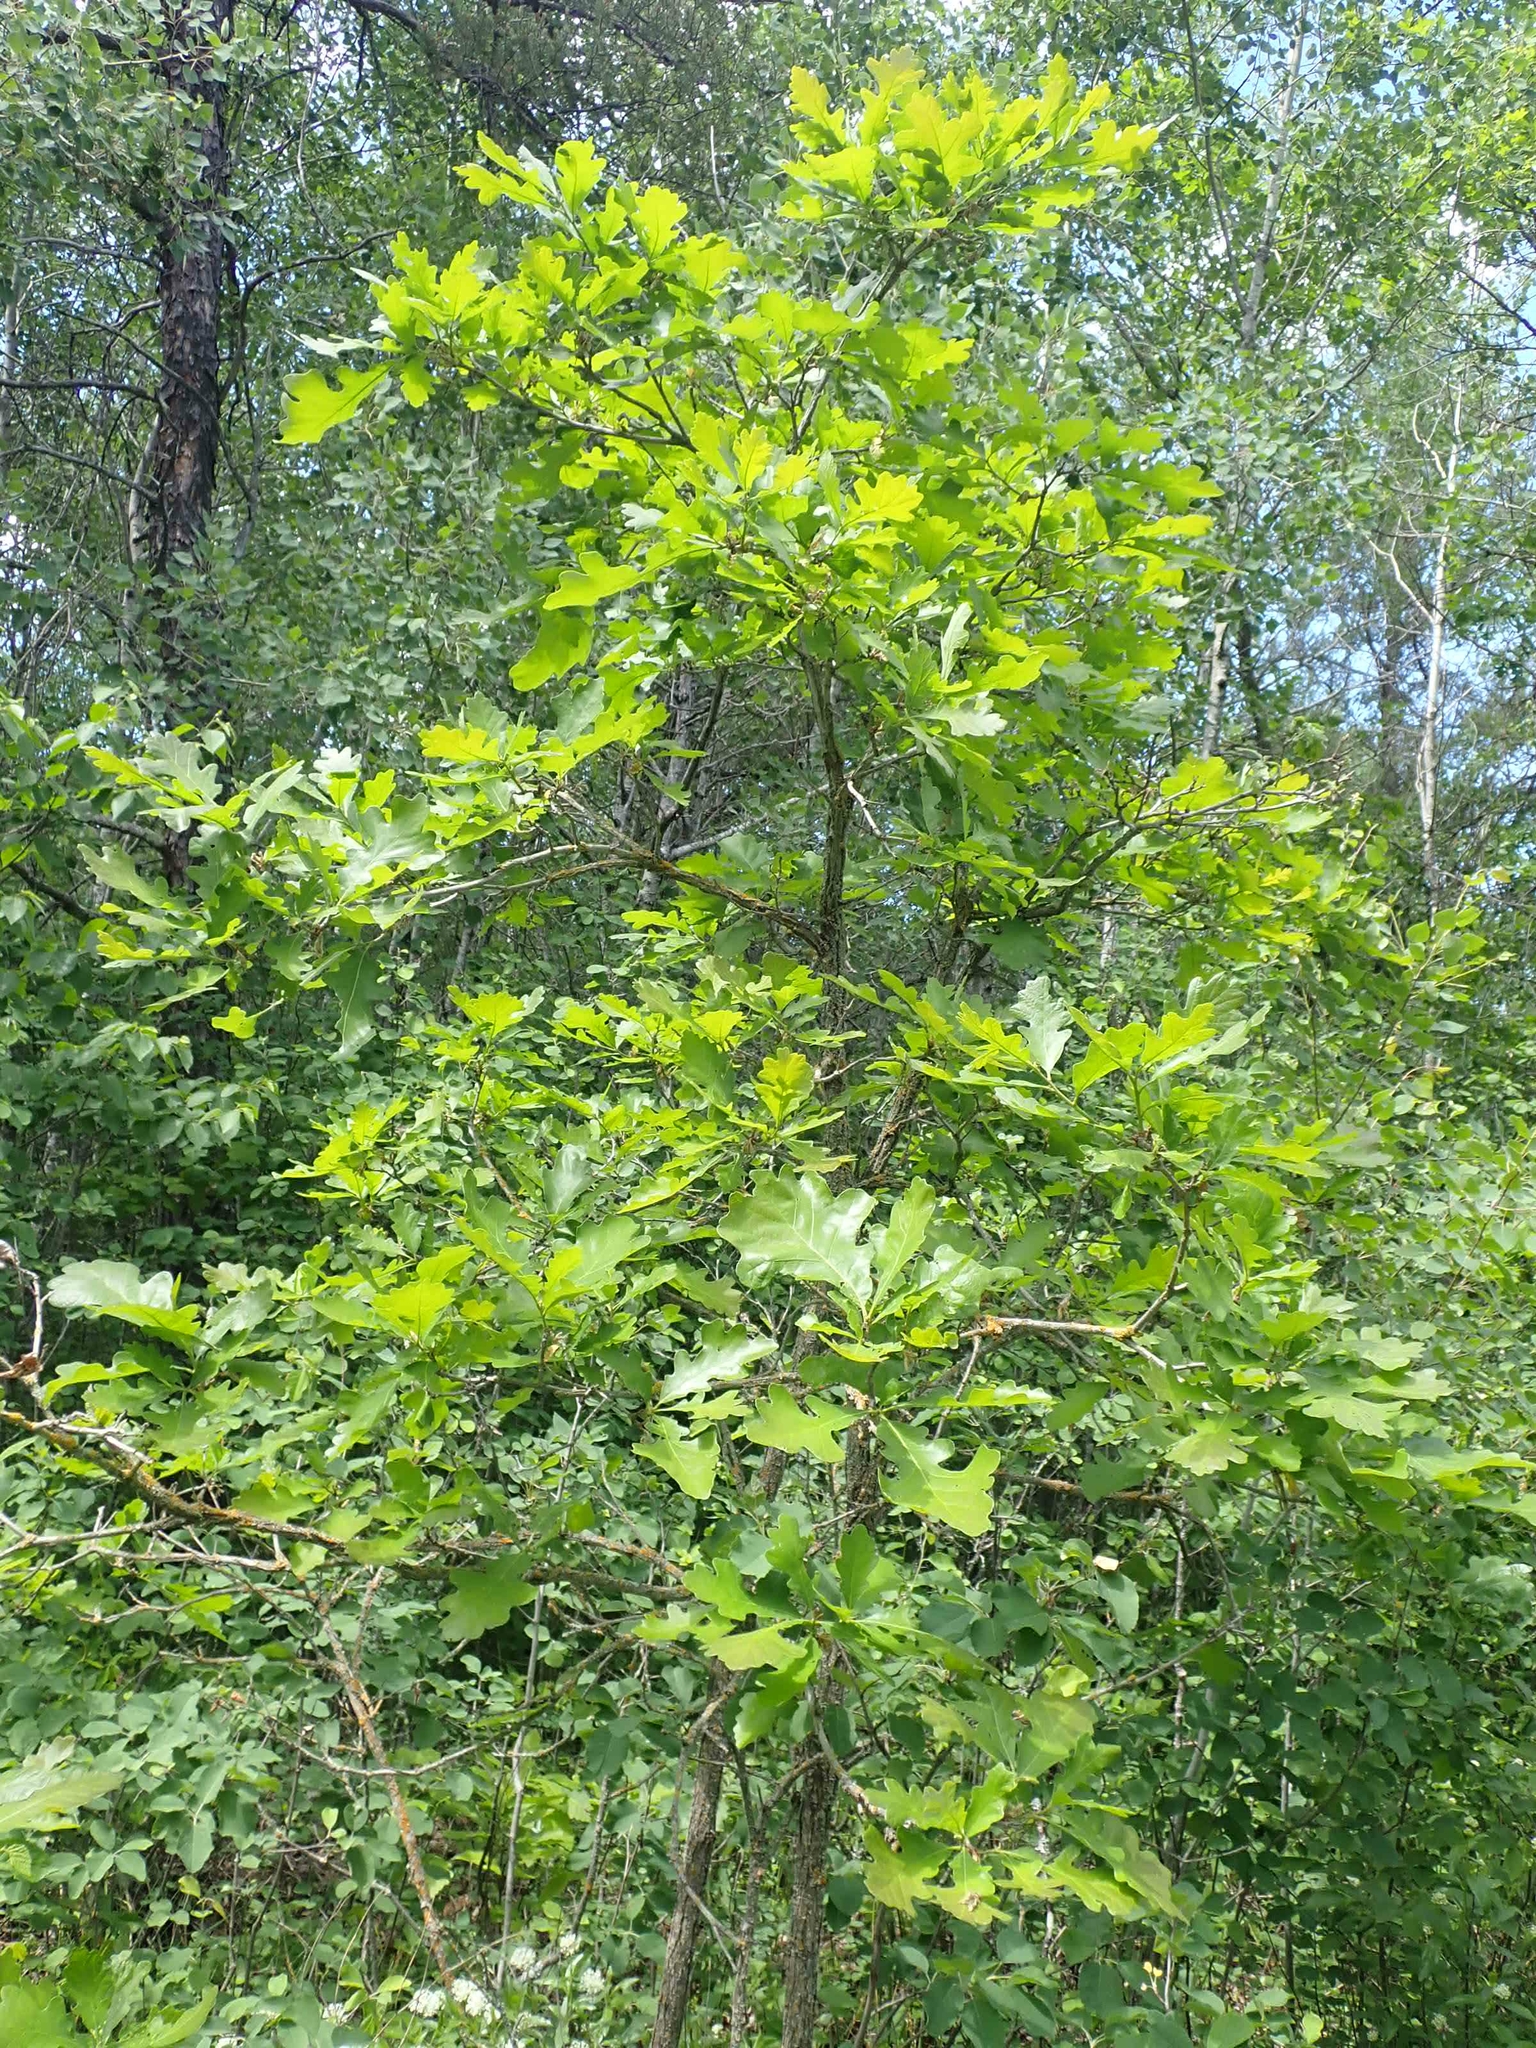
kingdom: Plantae
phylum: Tracheophyta
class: Magnoliopsida
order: Fagales
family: Fagaceae
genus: Quercus
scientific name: Quercus macrocarpa
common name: Bur oak
